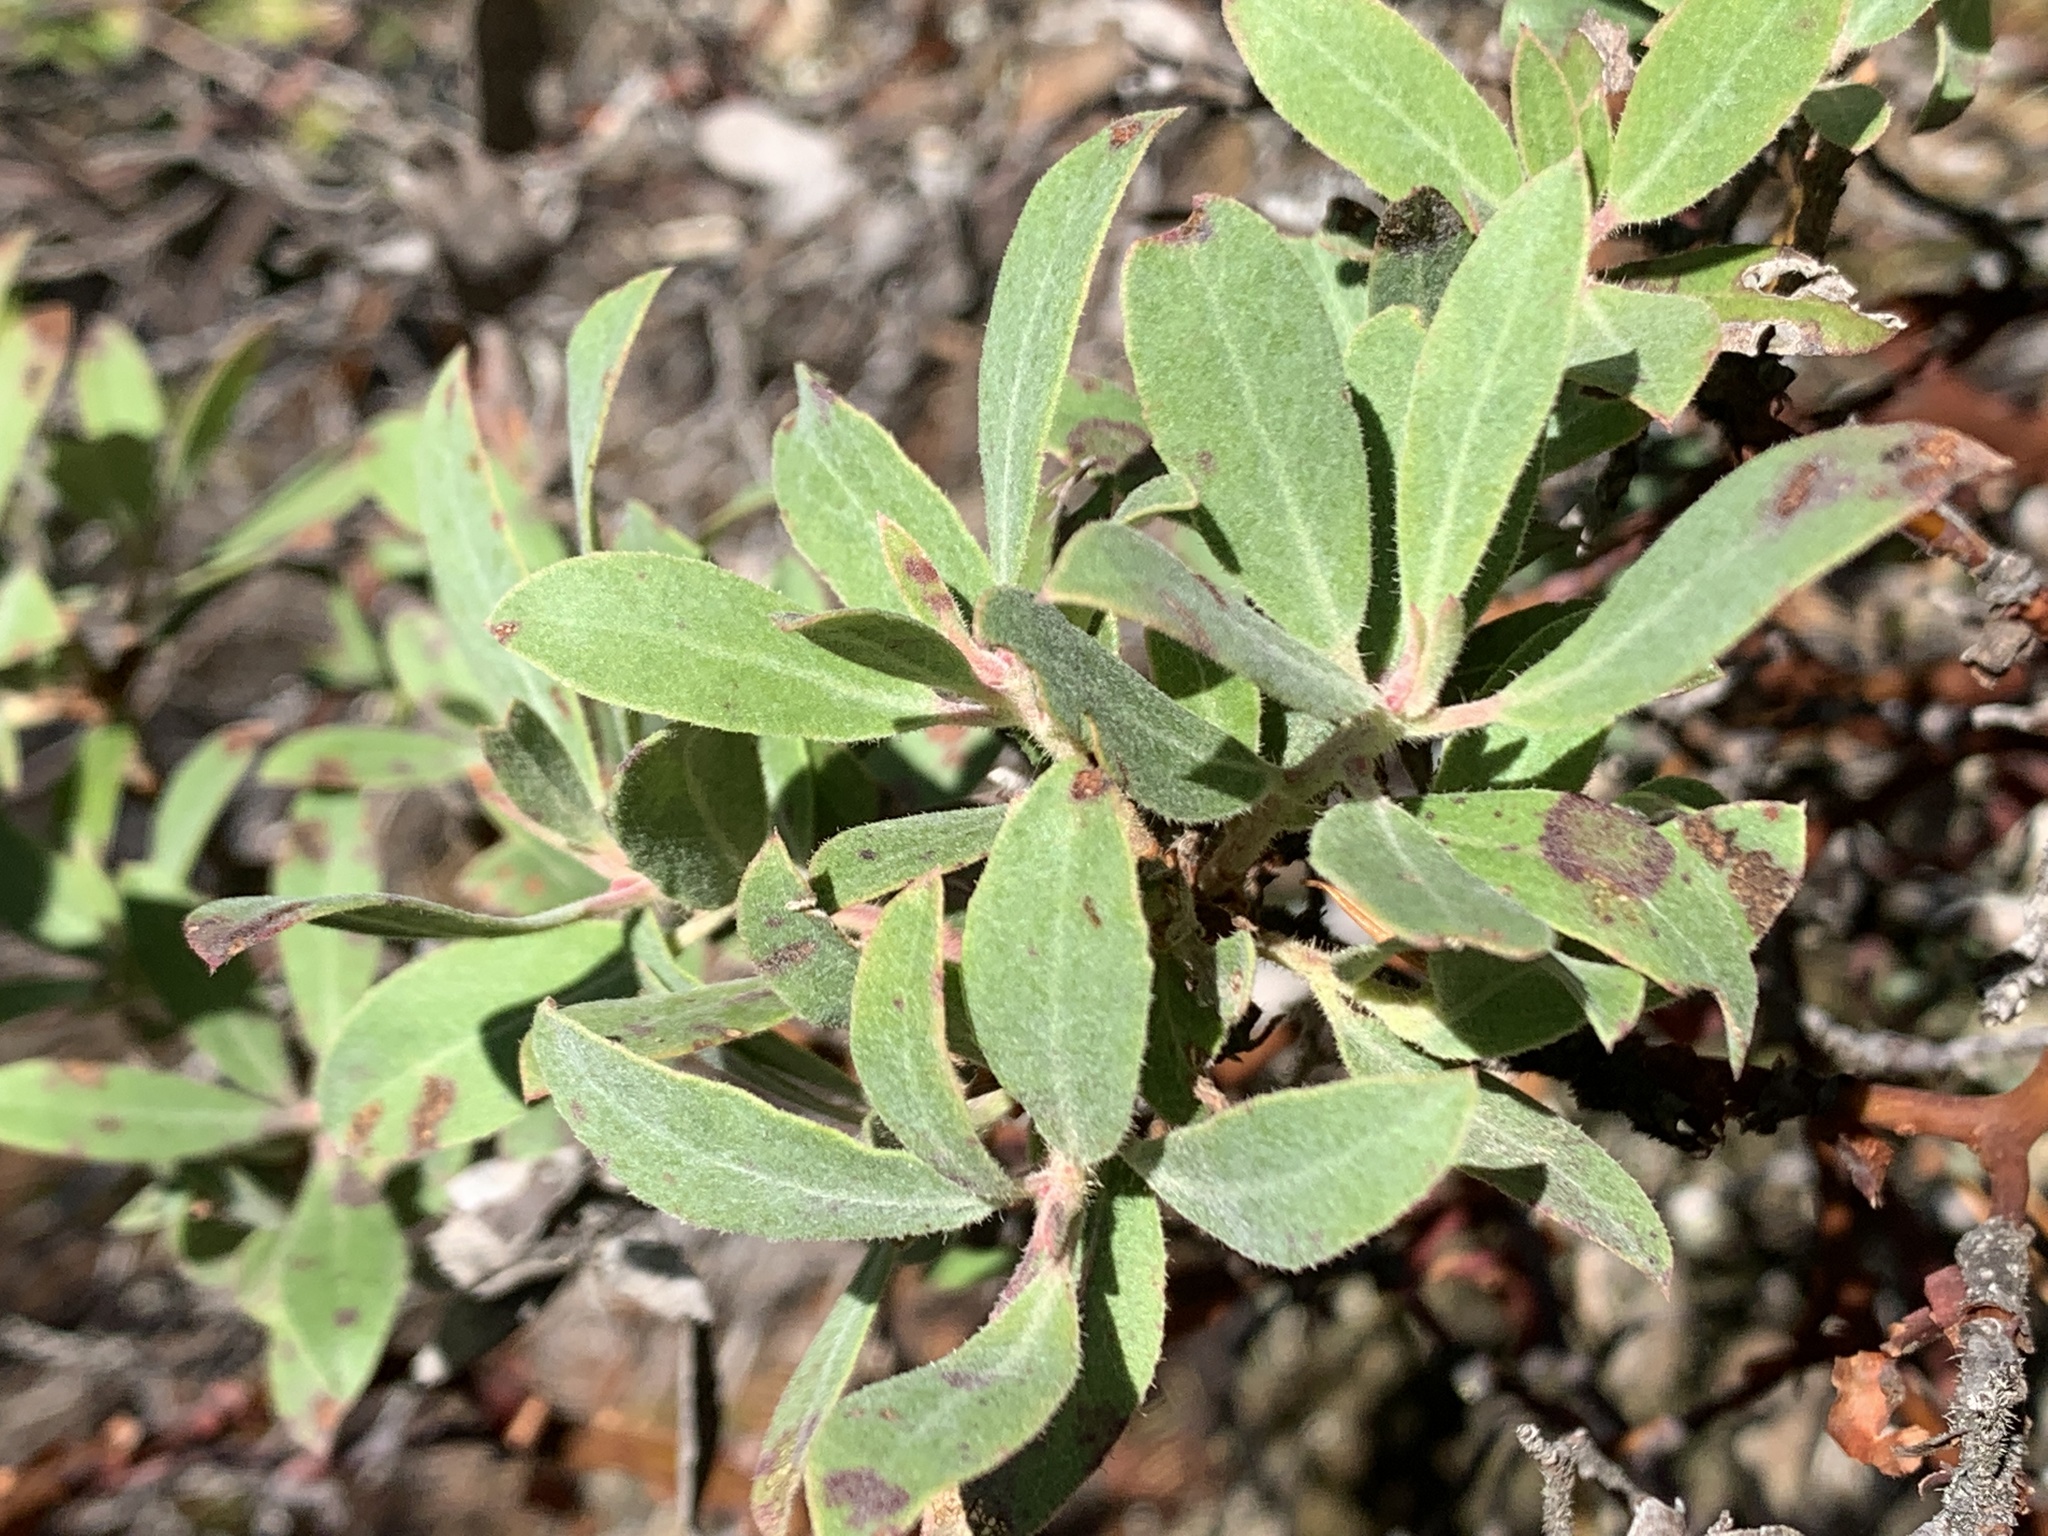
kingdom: Plantae
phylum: Tracheophyta
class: Magnoliopsida
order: Ericales
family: Ericaceae
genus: Arctostaphylos
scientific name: Arctostaphylos columbiana
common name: Bristly bearberry
